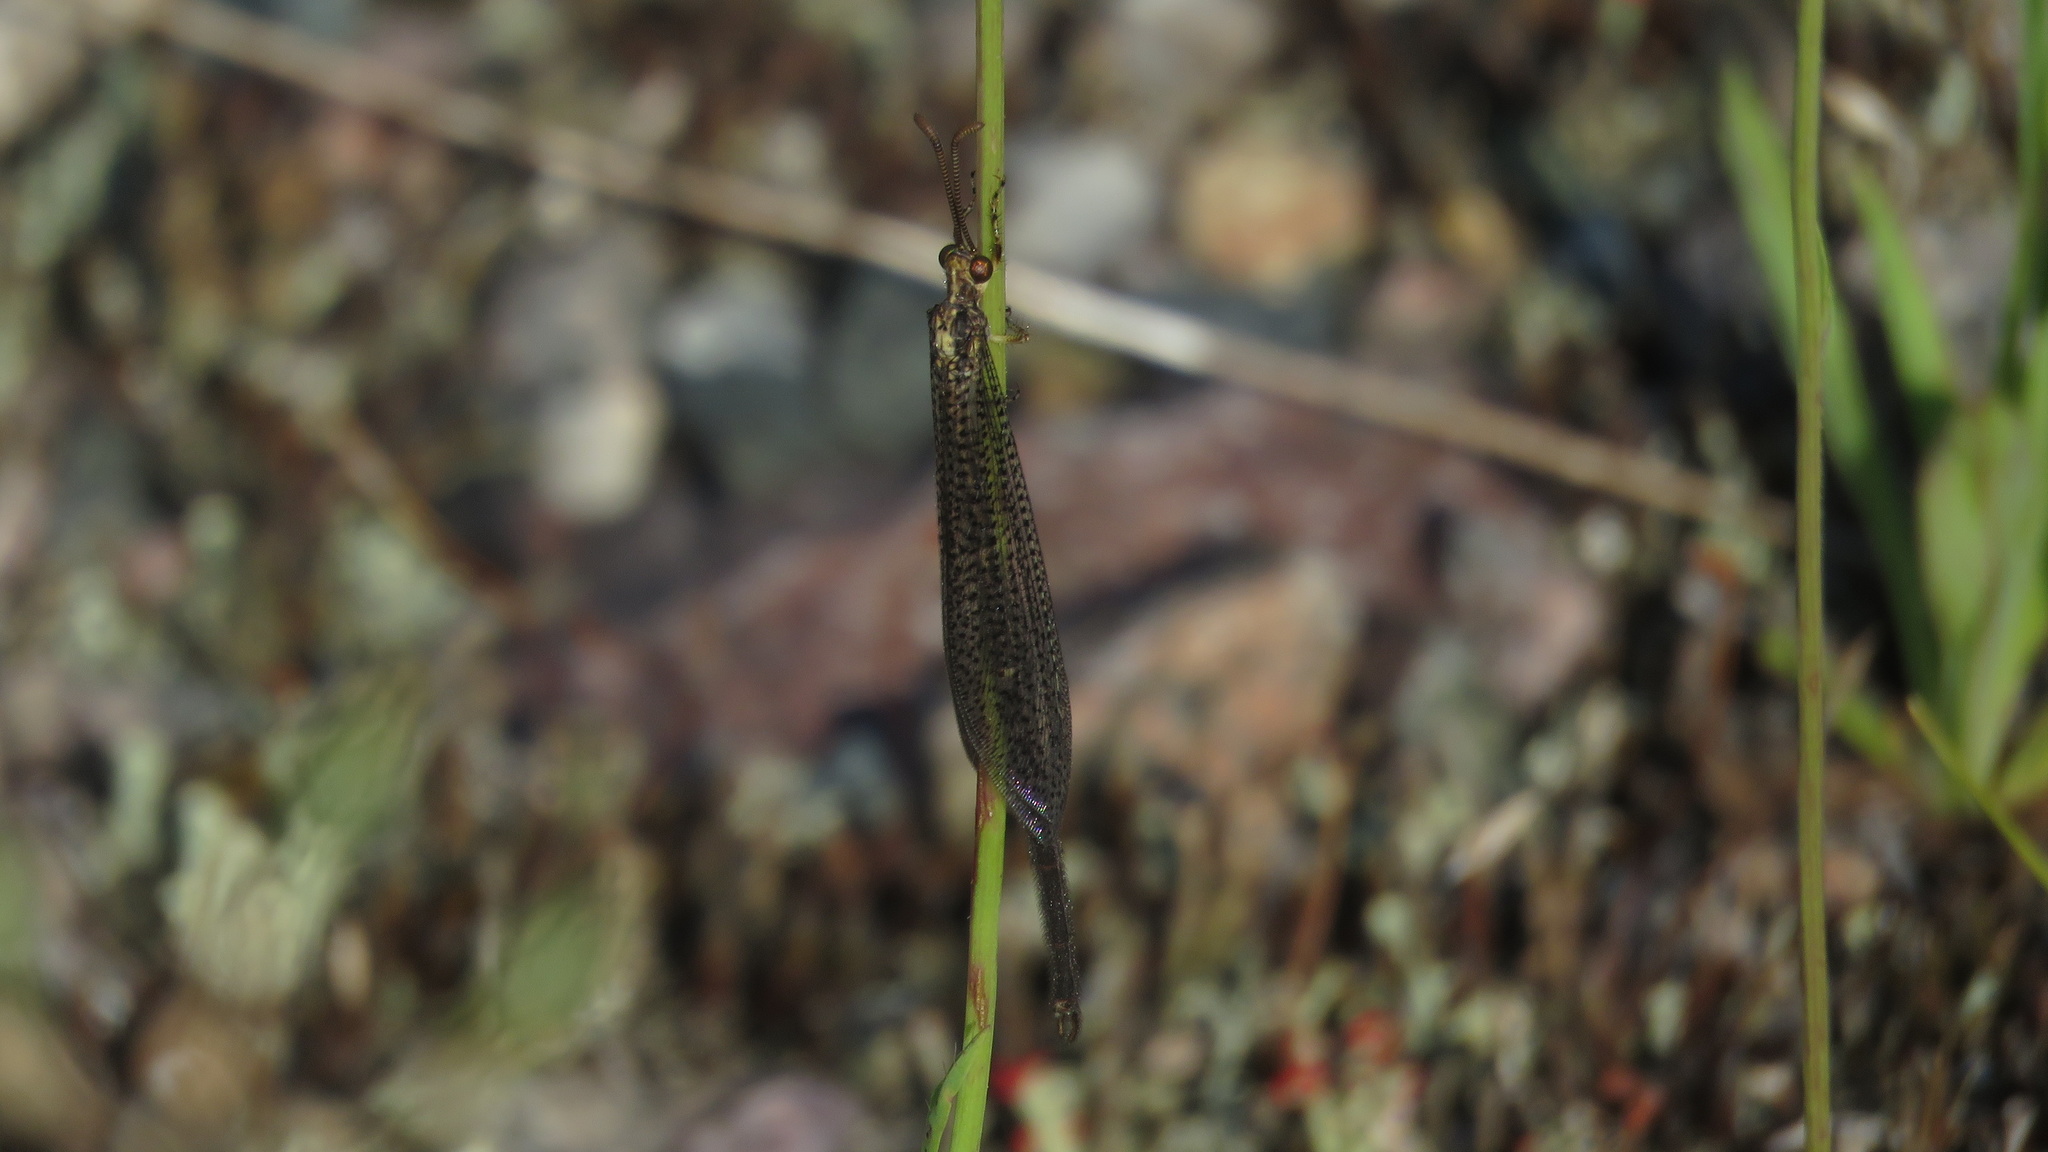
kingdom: Animalia
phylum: Arthropoda
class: Insecta
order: Neuroptera
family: Myrmeleontidae
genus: Brachynemurus
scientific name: Brachynemurus abdominalis
